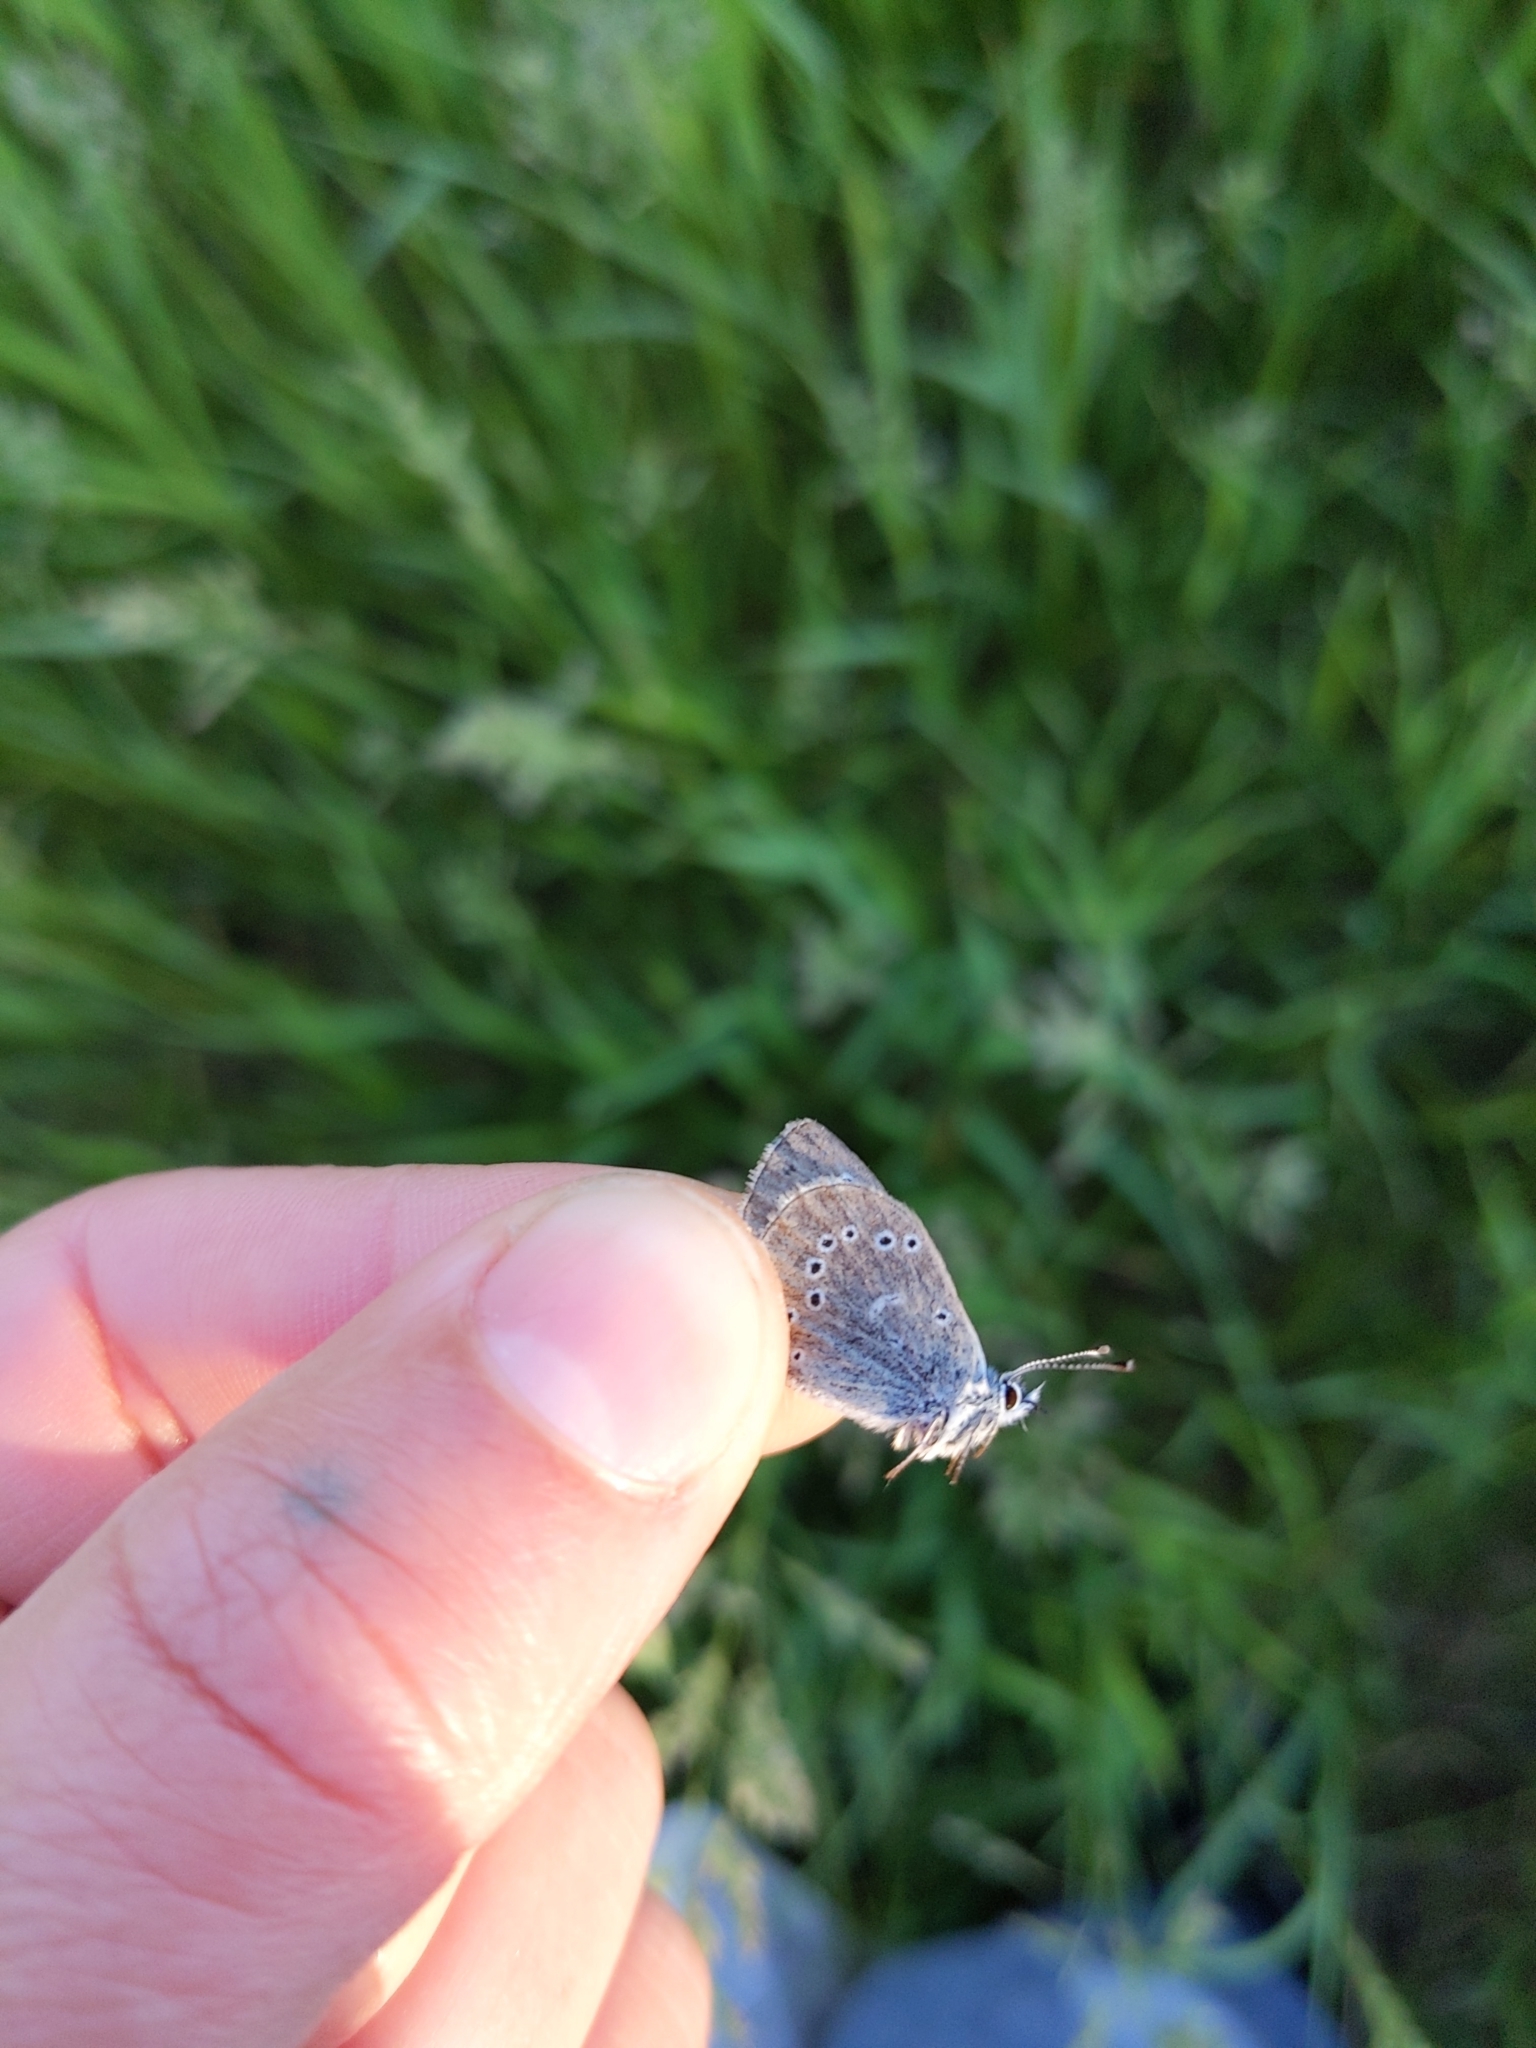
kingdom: Animalia
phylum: Arthropoda
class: Insecta
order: Lepidoptera
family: Lycaenidae
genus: Glaucopsyche
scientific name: Glaucopsyche lygdamus
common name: Silvery blue
